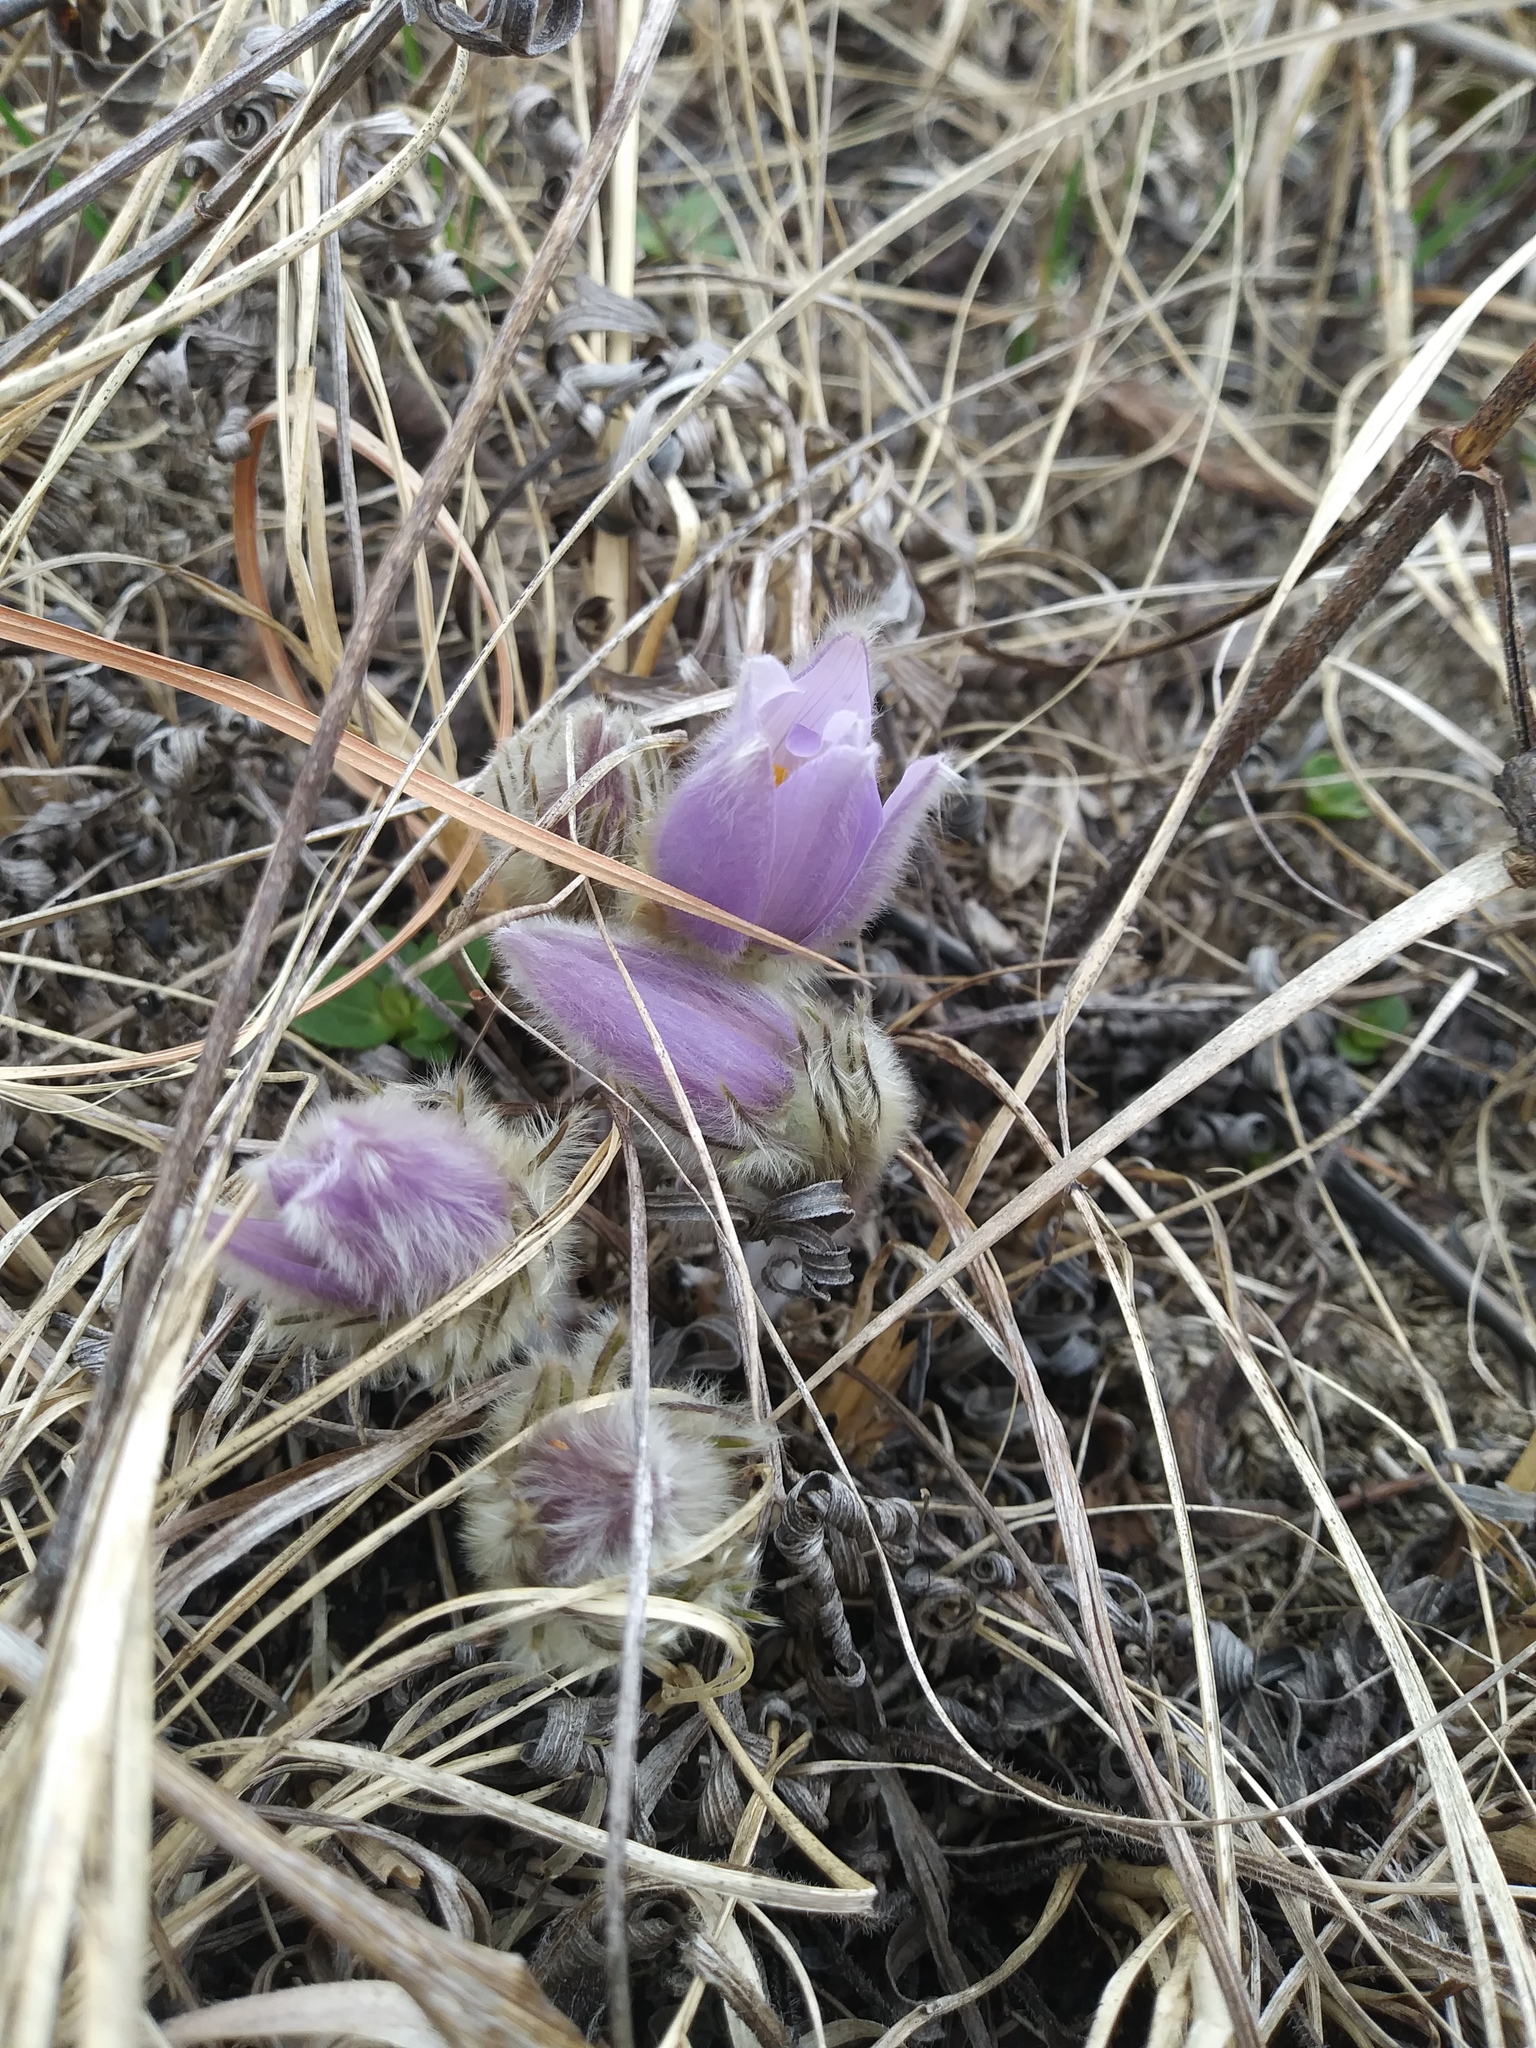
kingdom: Plantae
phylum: Tracheophyta
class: Magnoliopsida
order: Ranunculales
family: Ranunculaceae
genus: Pulsatilla
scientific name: Pulsatilla nuttalliana
